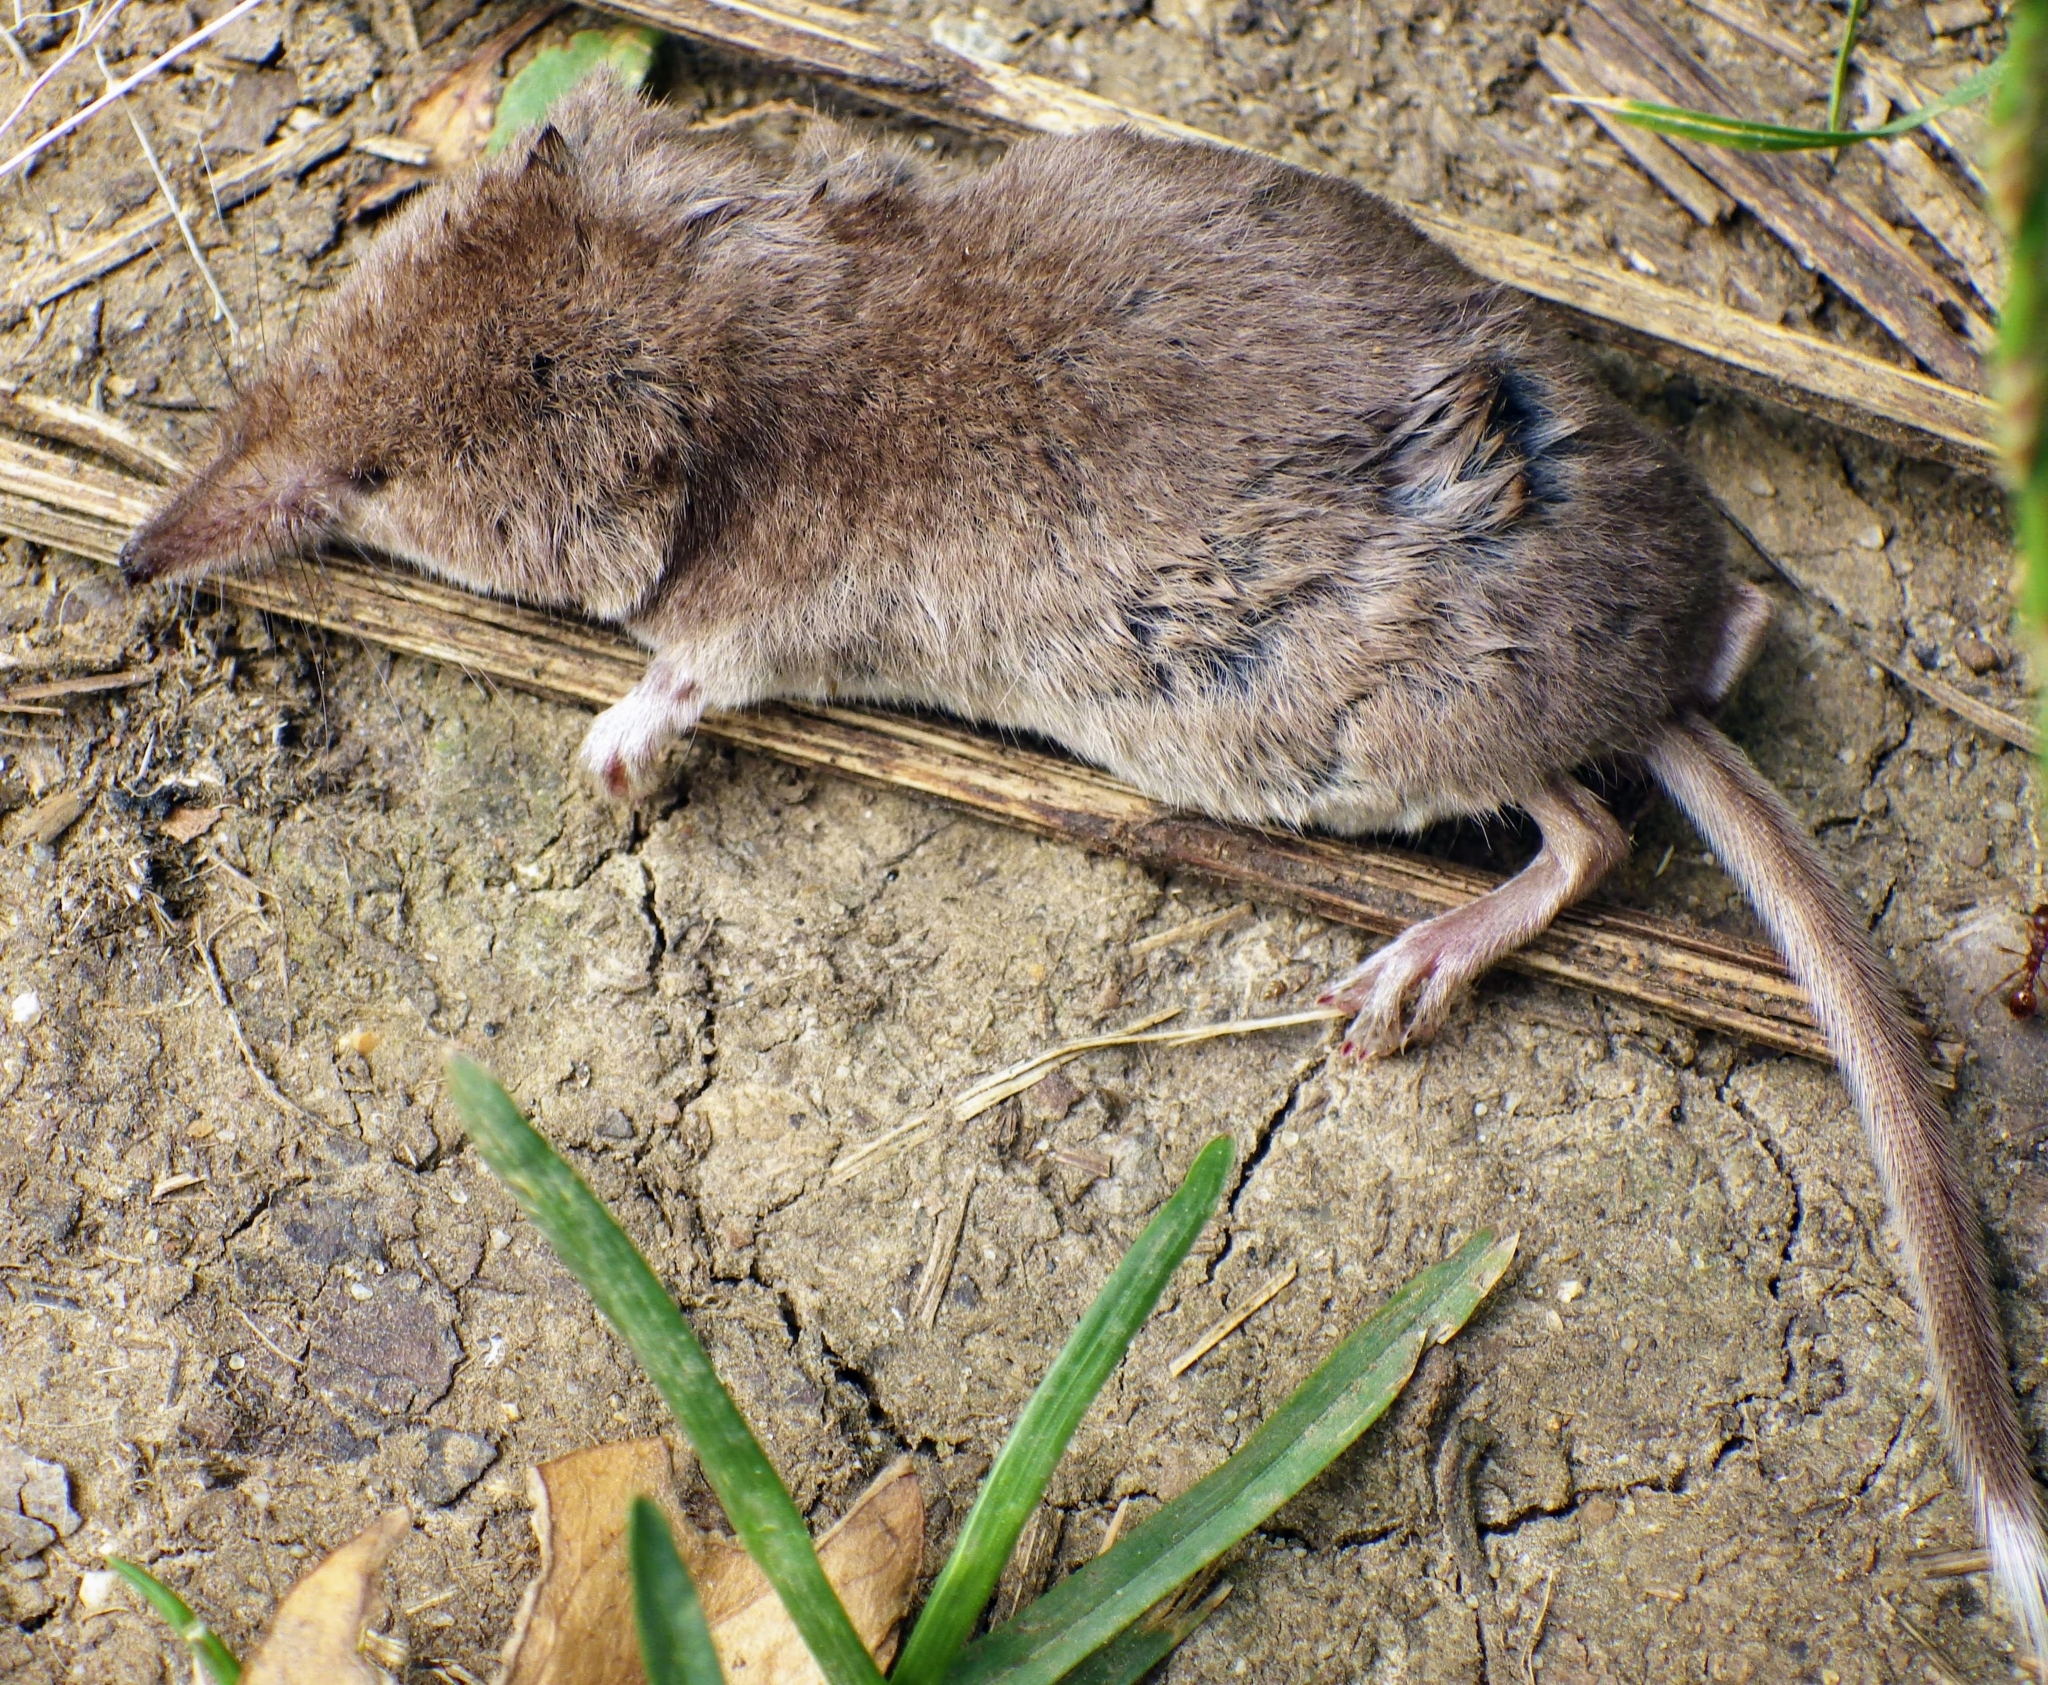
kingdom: Animalia
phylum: Chordata
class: Mammalia
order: Soricomorpha
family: Soricidae
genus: Sorex
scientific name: Sorex araneus
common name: Common shrew
